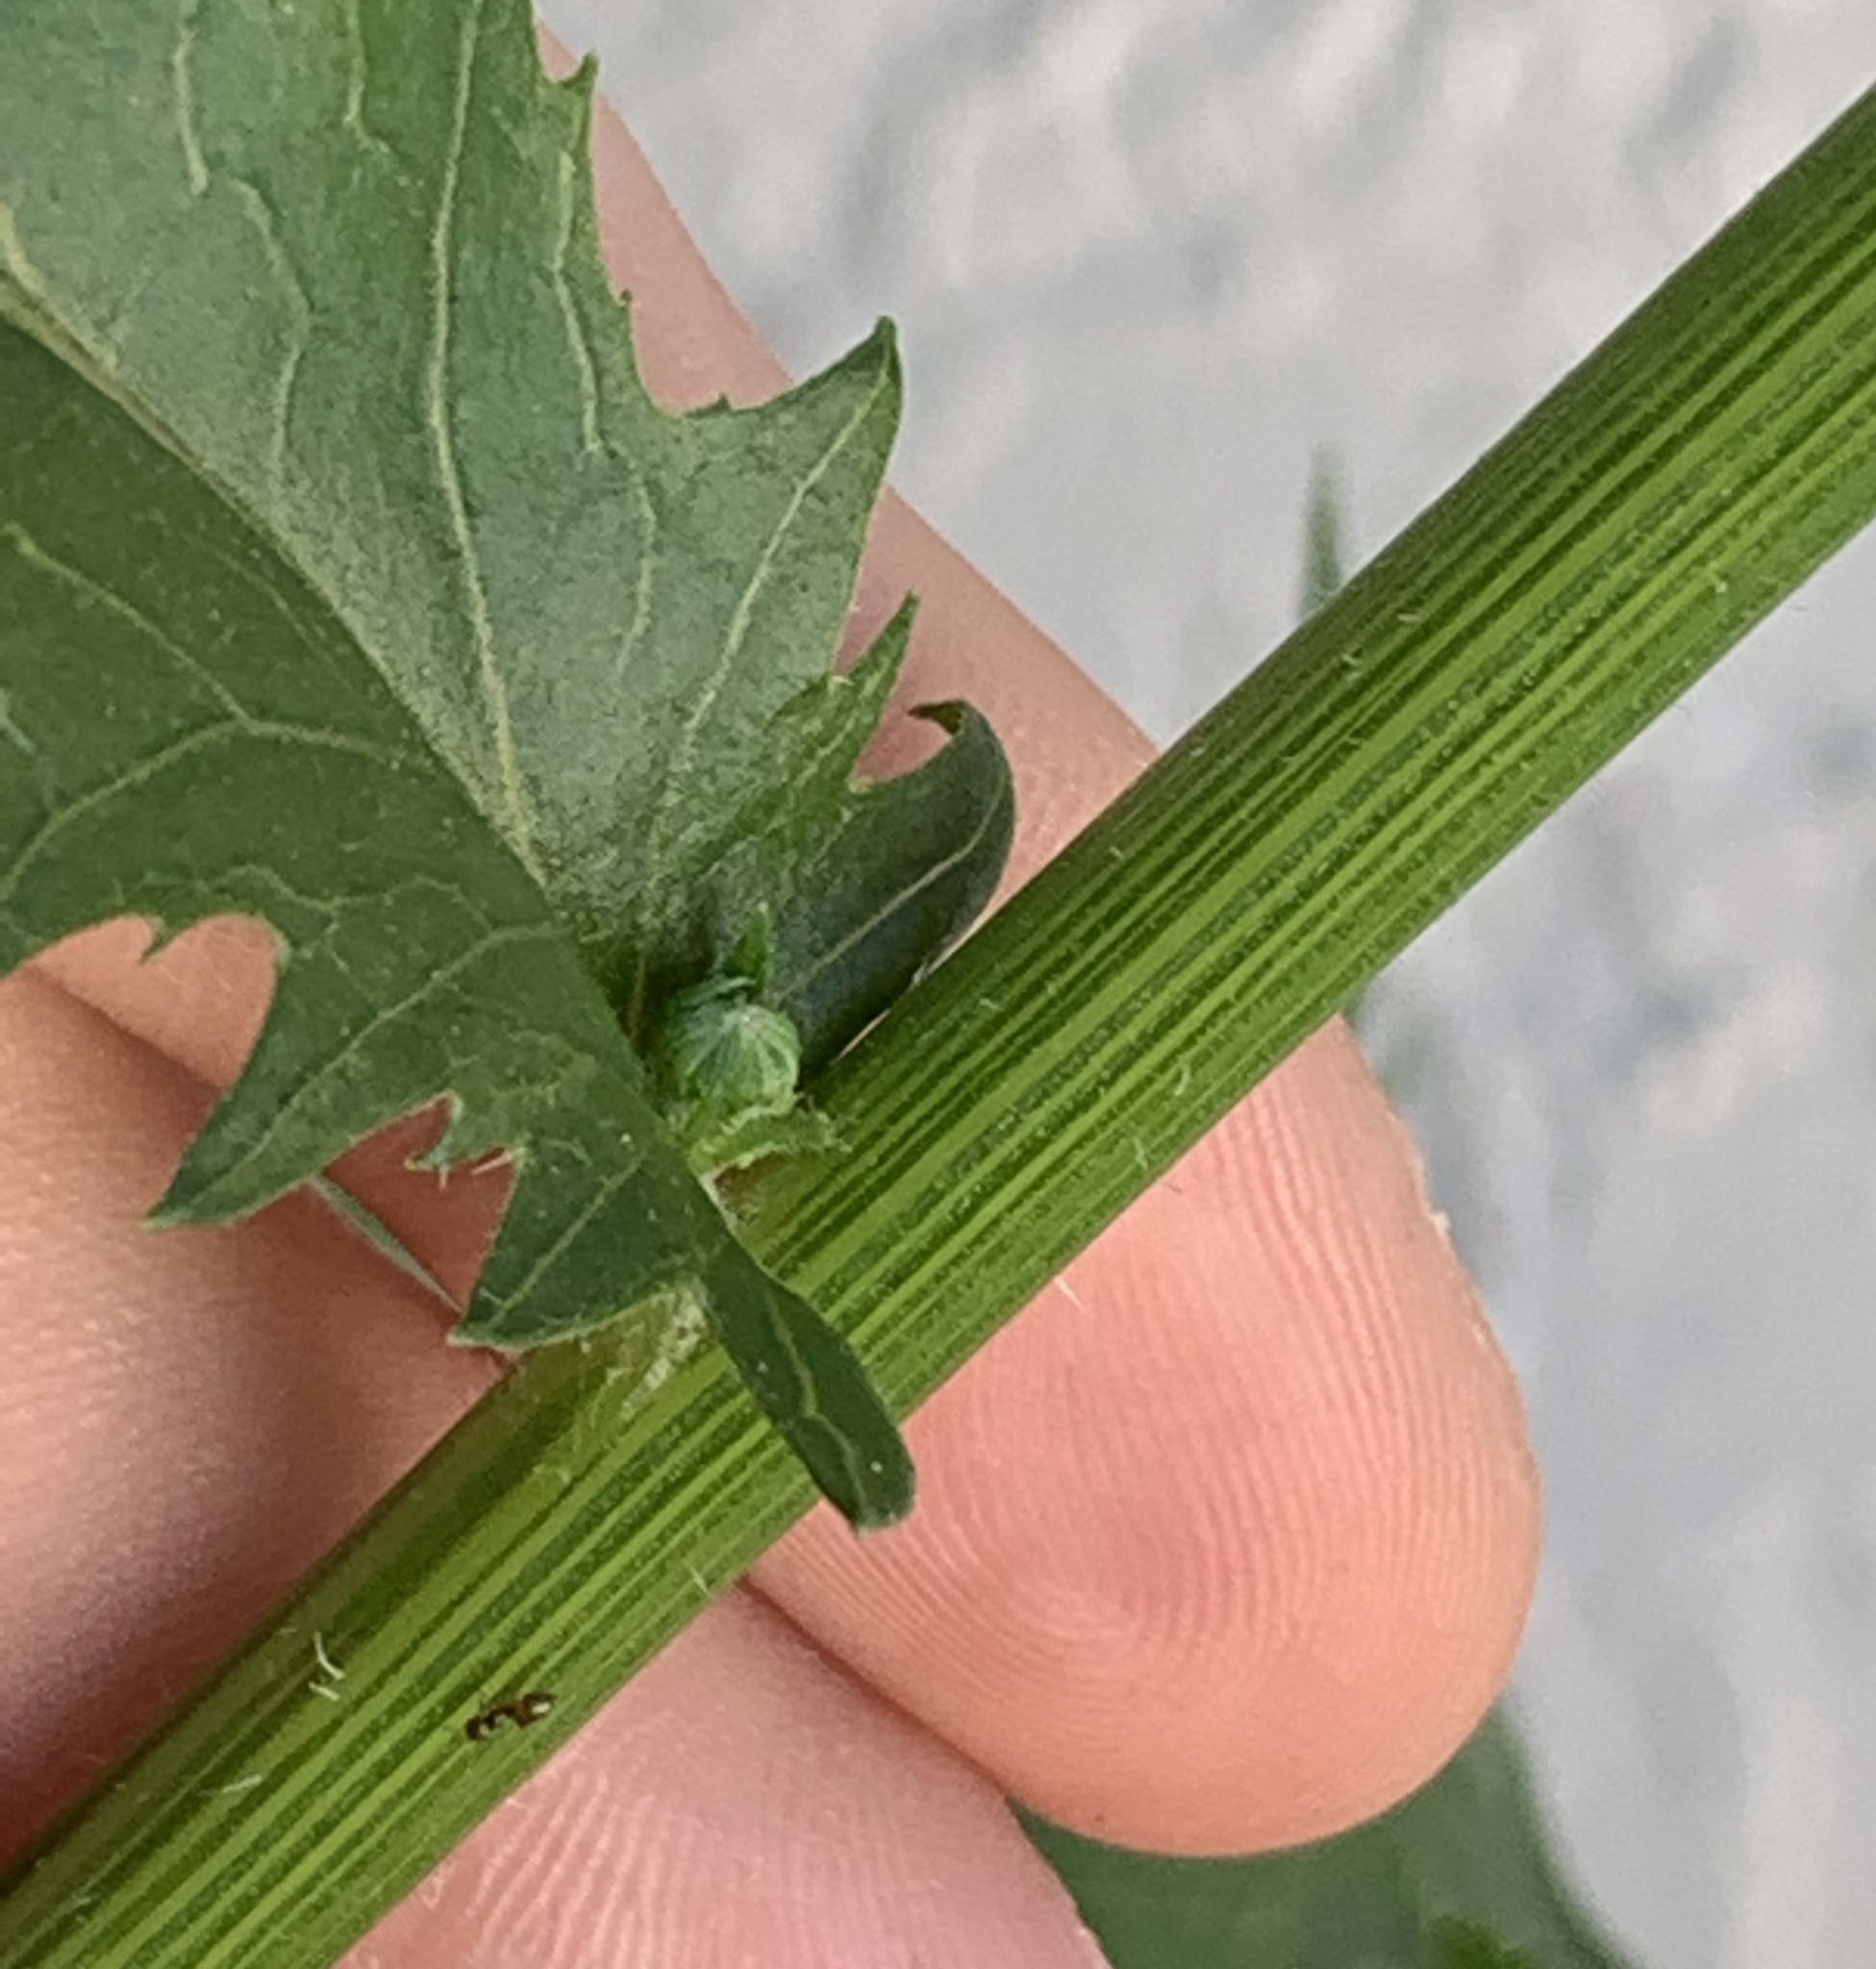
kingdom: Plantae
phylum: Tracheophyta
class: Magnoliopsida
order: Asterales
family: Asteraceae
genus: Erechtites
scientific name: Erechtites hieraciifolius
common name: American burnweed
